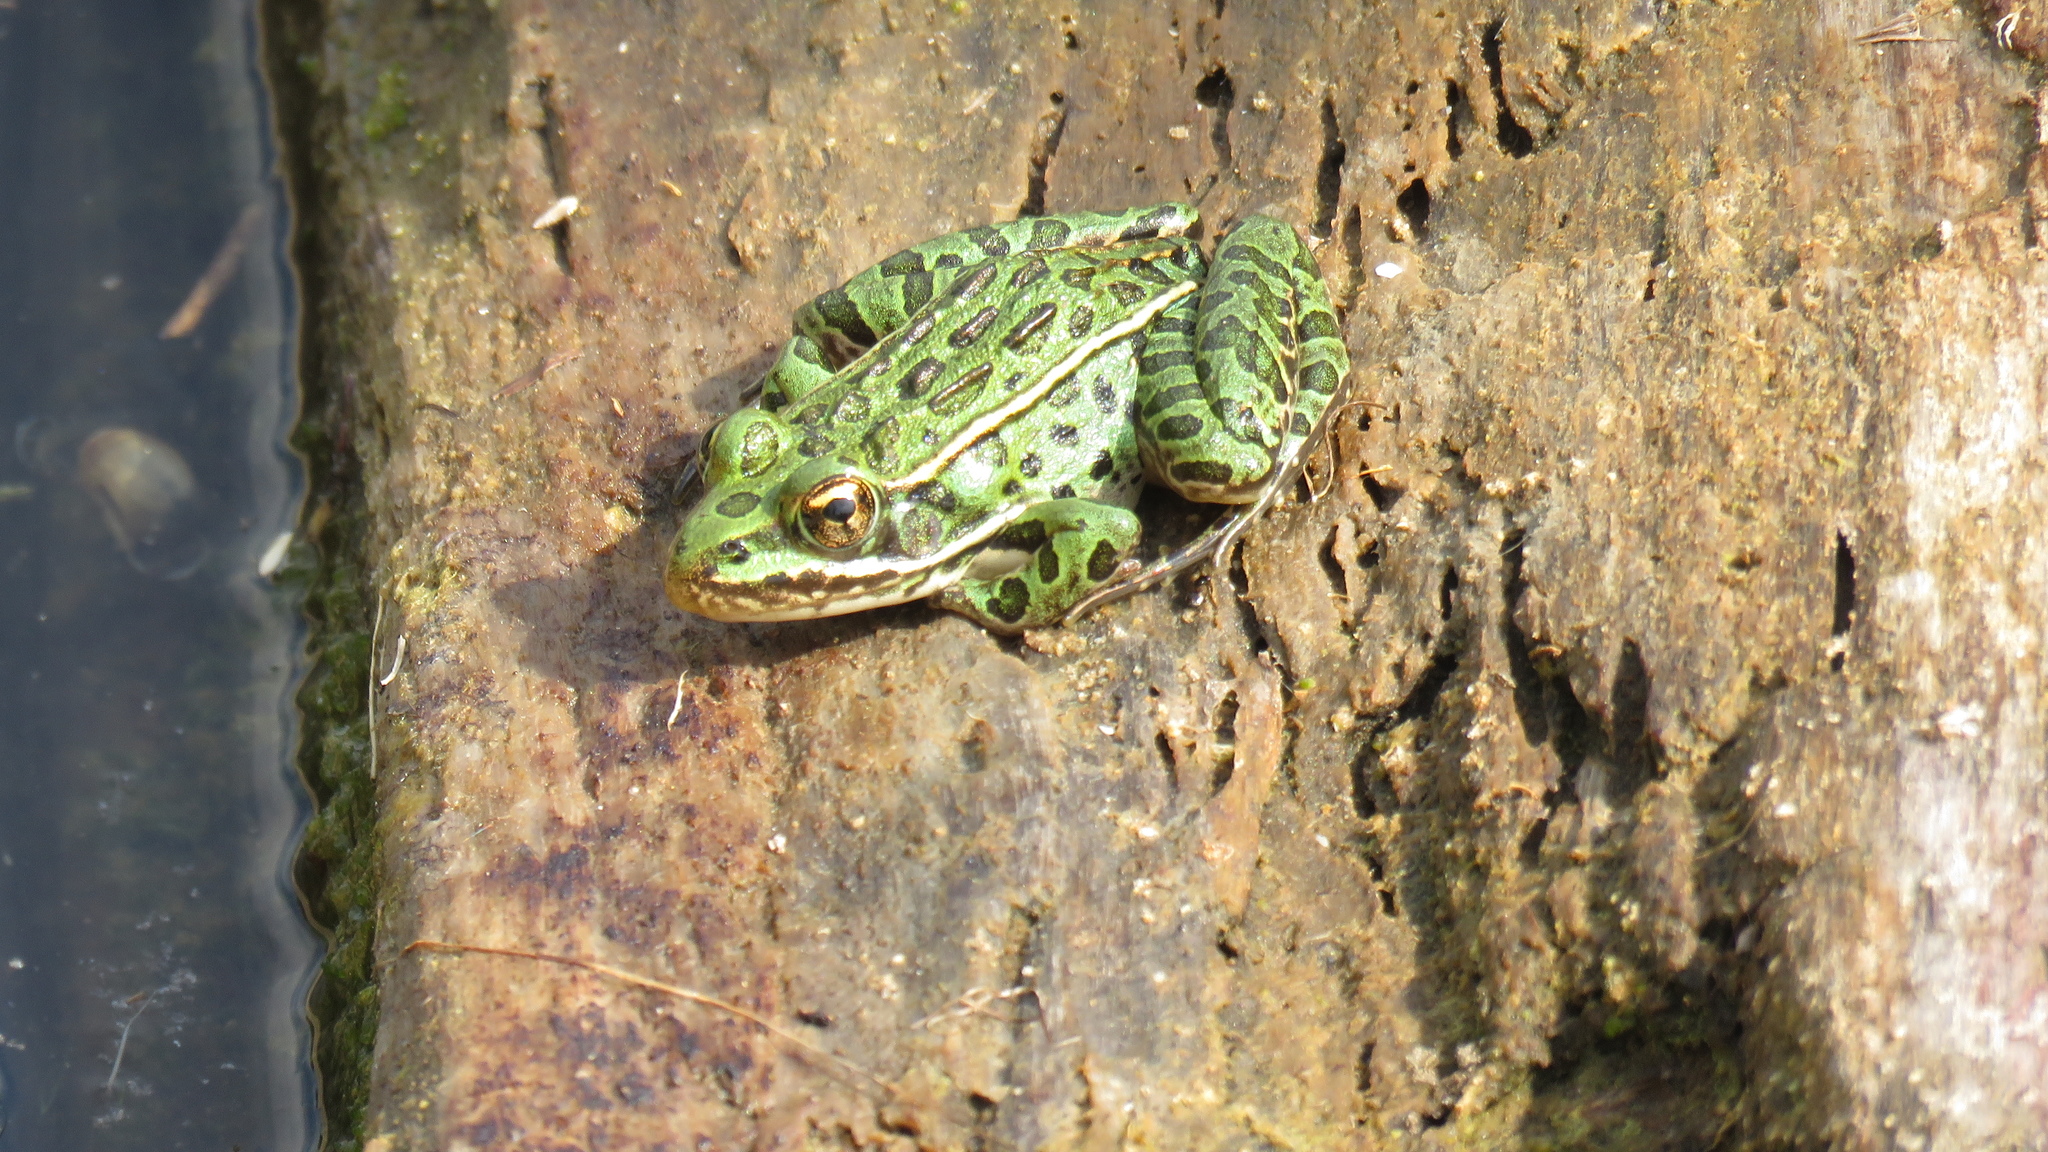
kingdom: Animalia
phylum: Chordata
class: Amphibia
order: Anura
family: Ranidae
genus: Lithobates
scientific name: Lithobates pipiens
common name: Northern leopard frog
